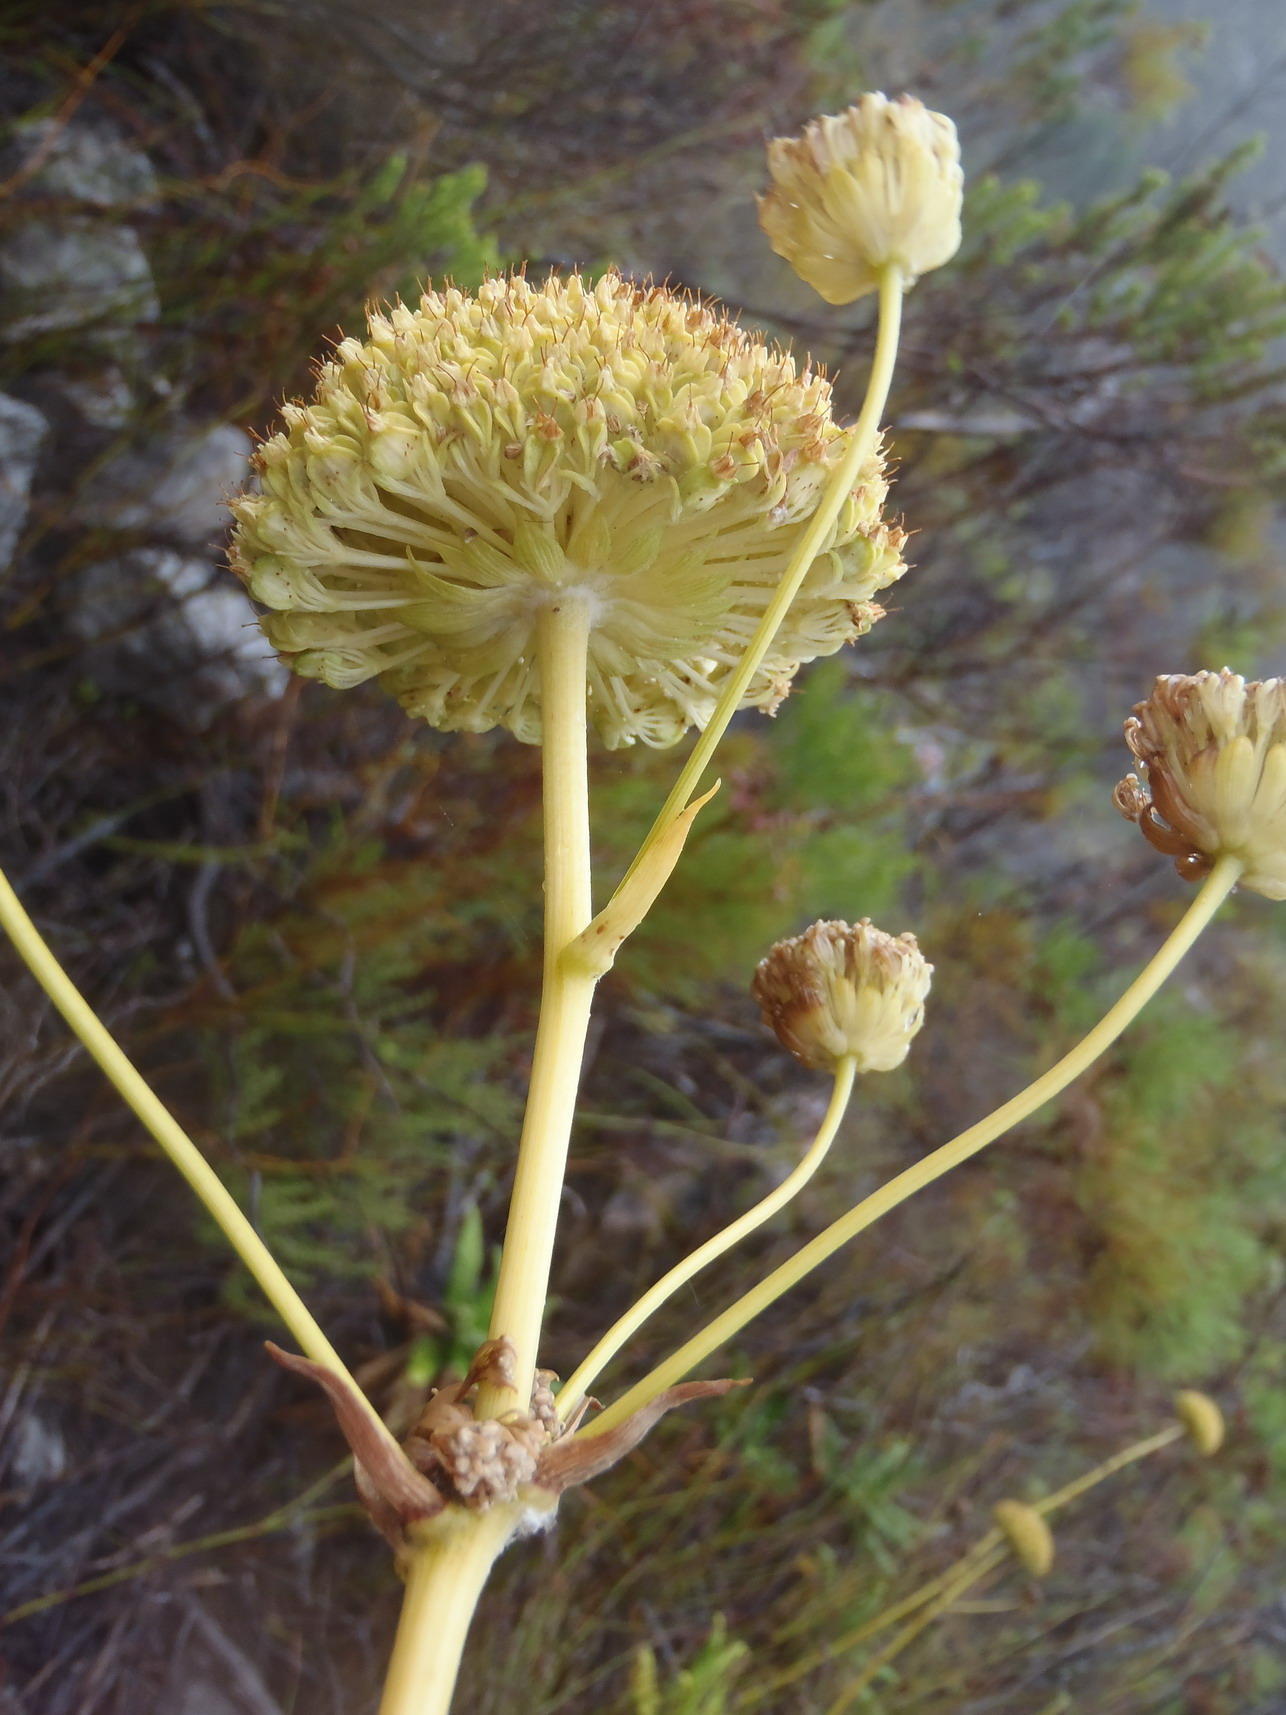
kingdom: Plantae
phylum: Tracheophyta
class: Magnoliopsida
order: Apiales
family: Apiaceae
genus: Hermas
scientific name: Hermas villosa
